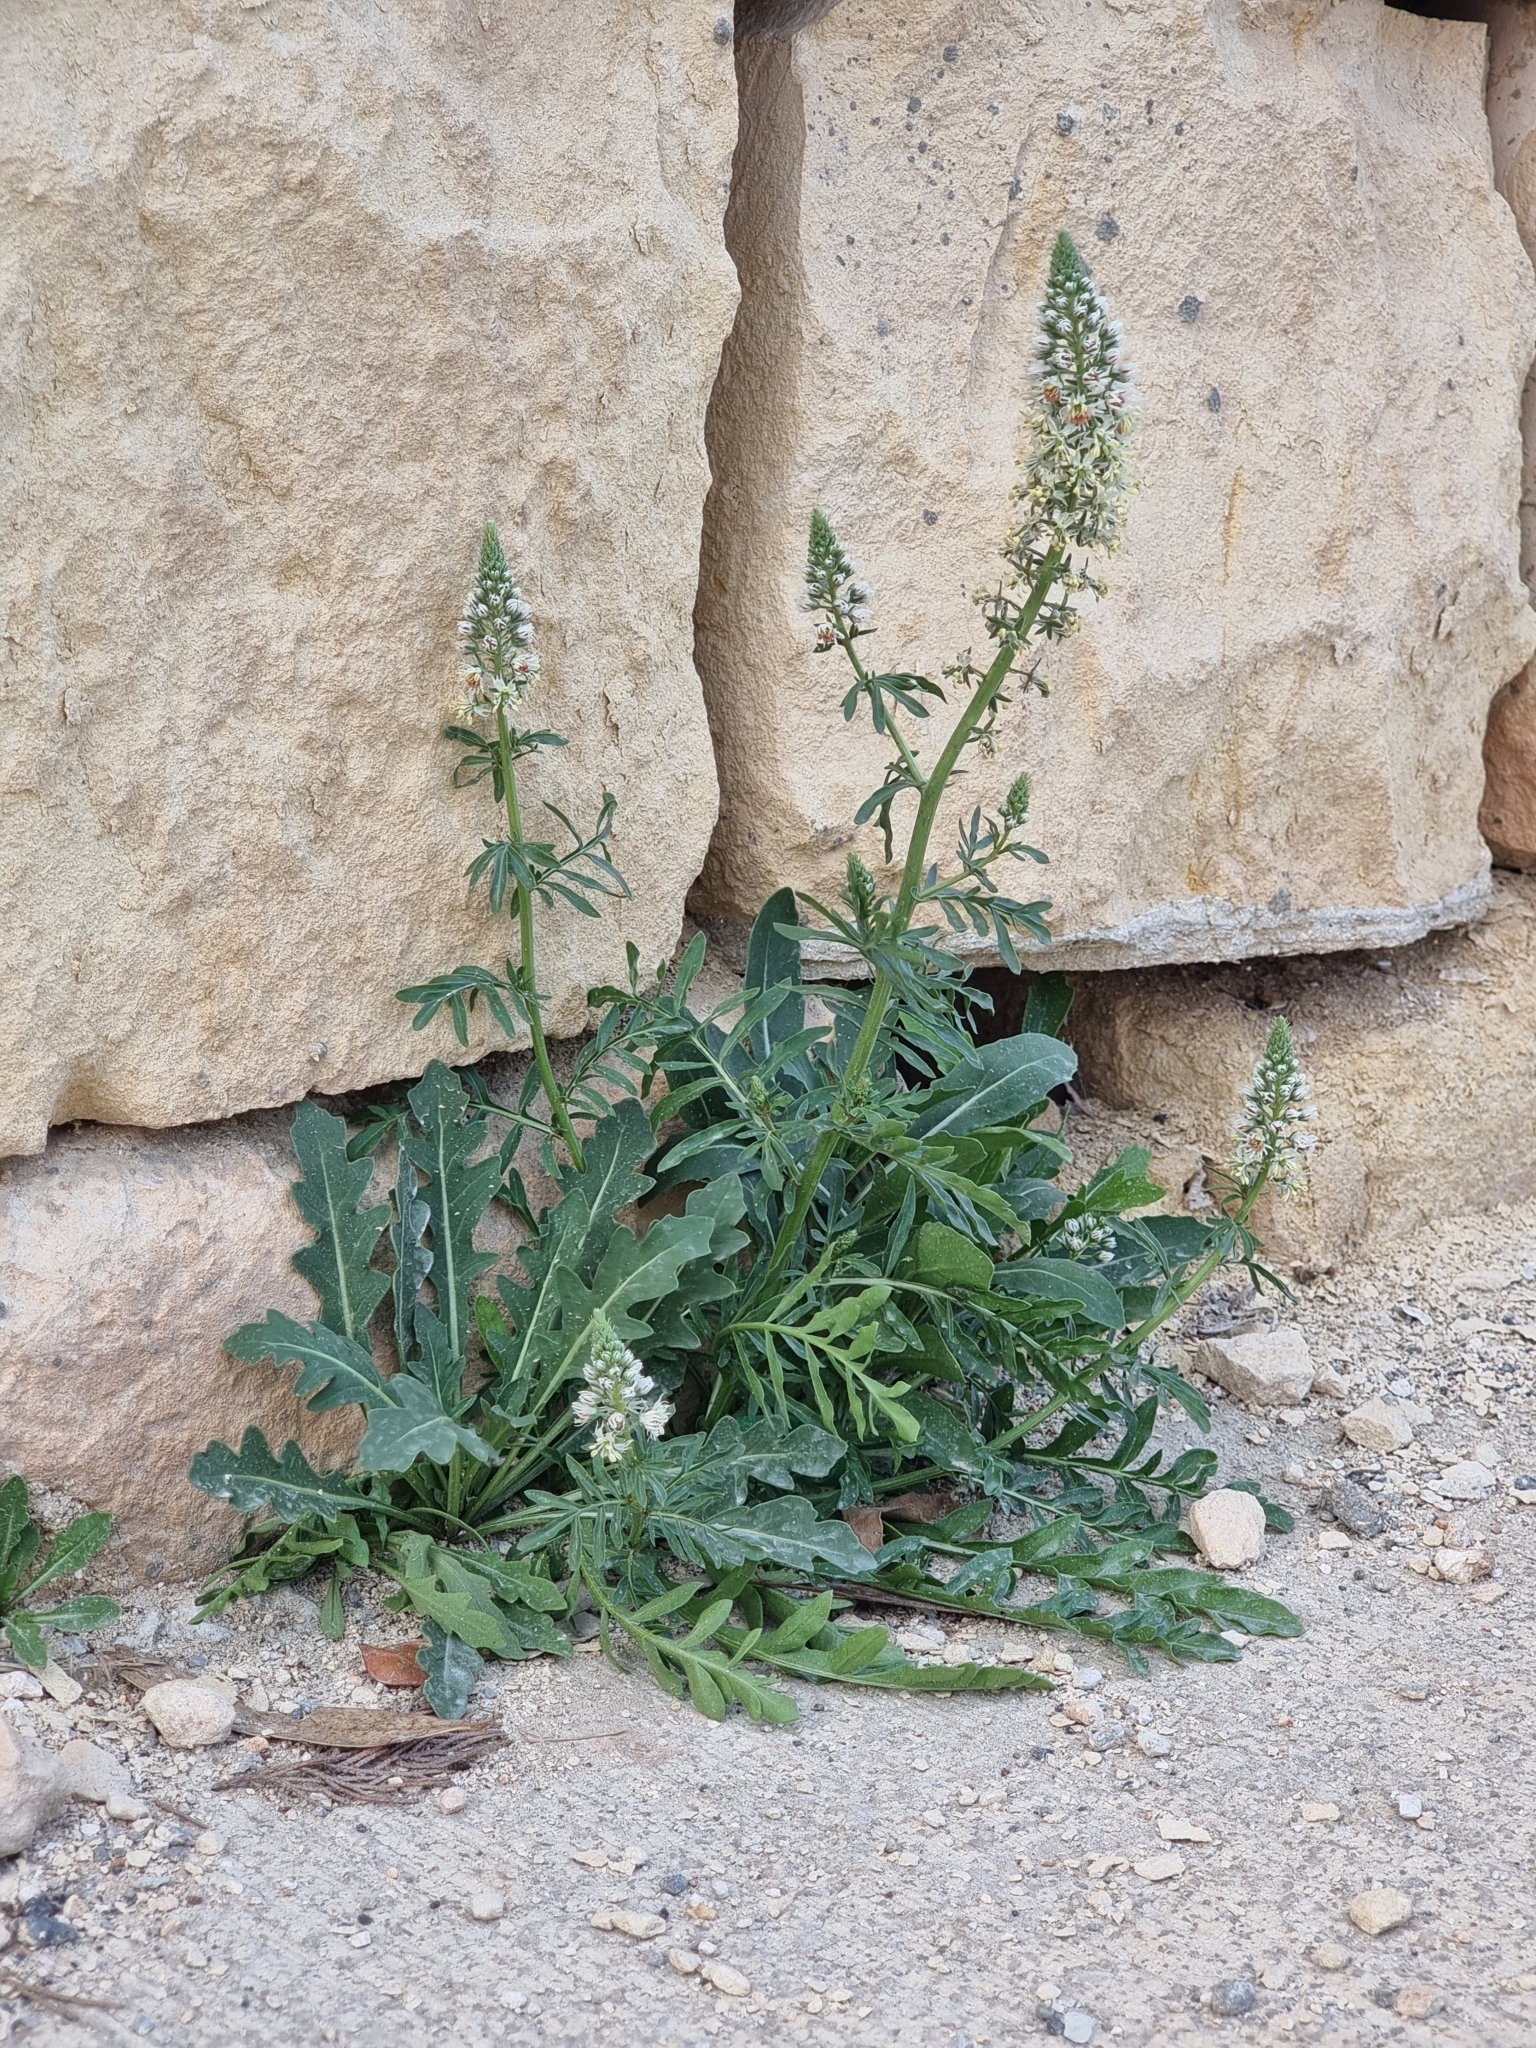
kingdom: Plantae
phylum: Tracheophyta
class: Magnoliopsida
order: Brassicales
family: Resedaceae
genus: Reseda
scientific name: Reseda alba
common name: White mignonette
